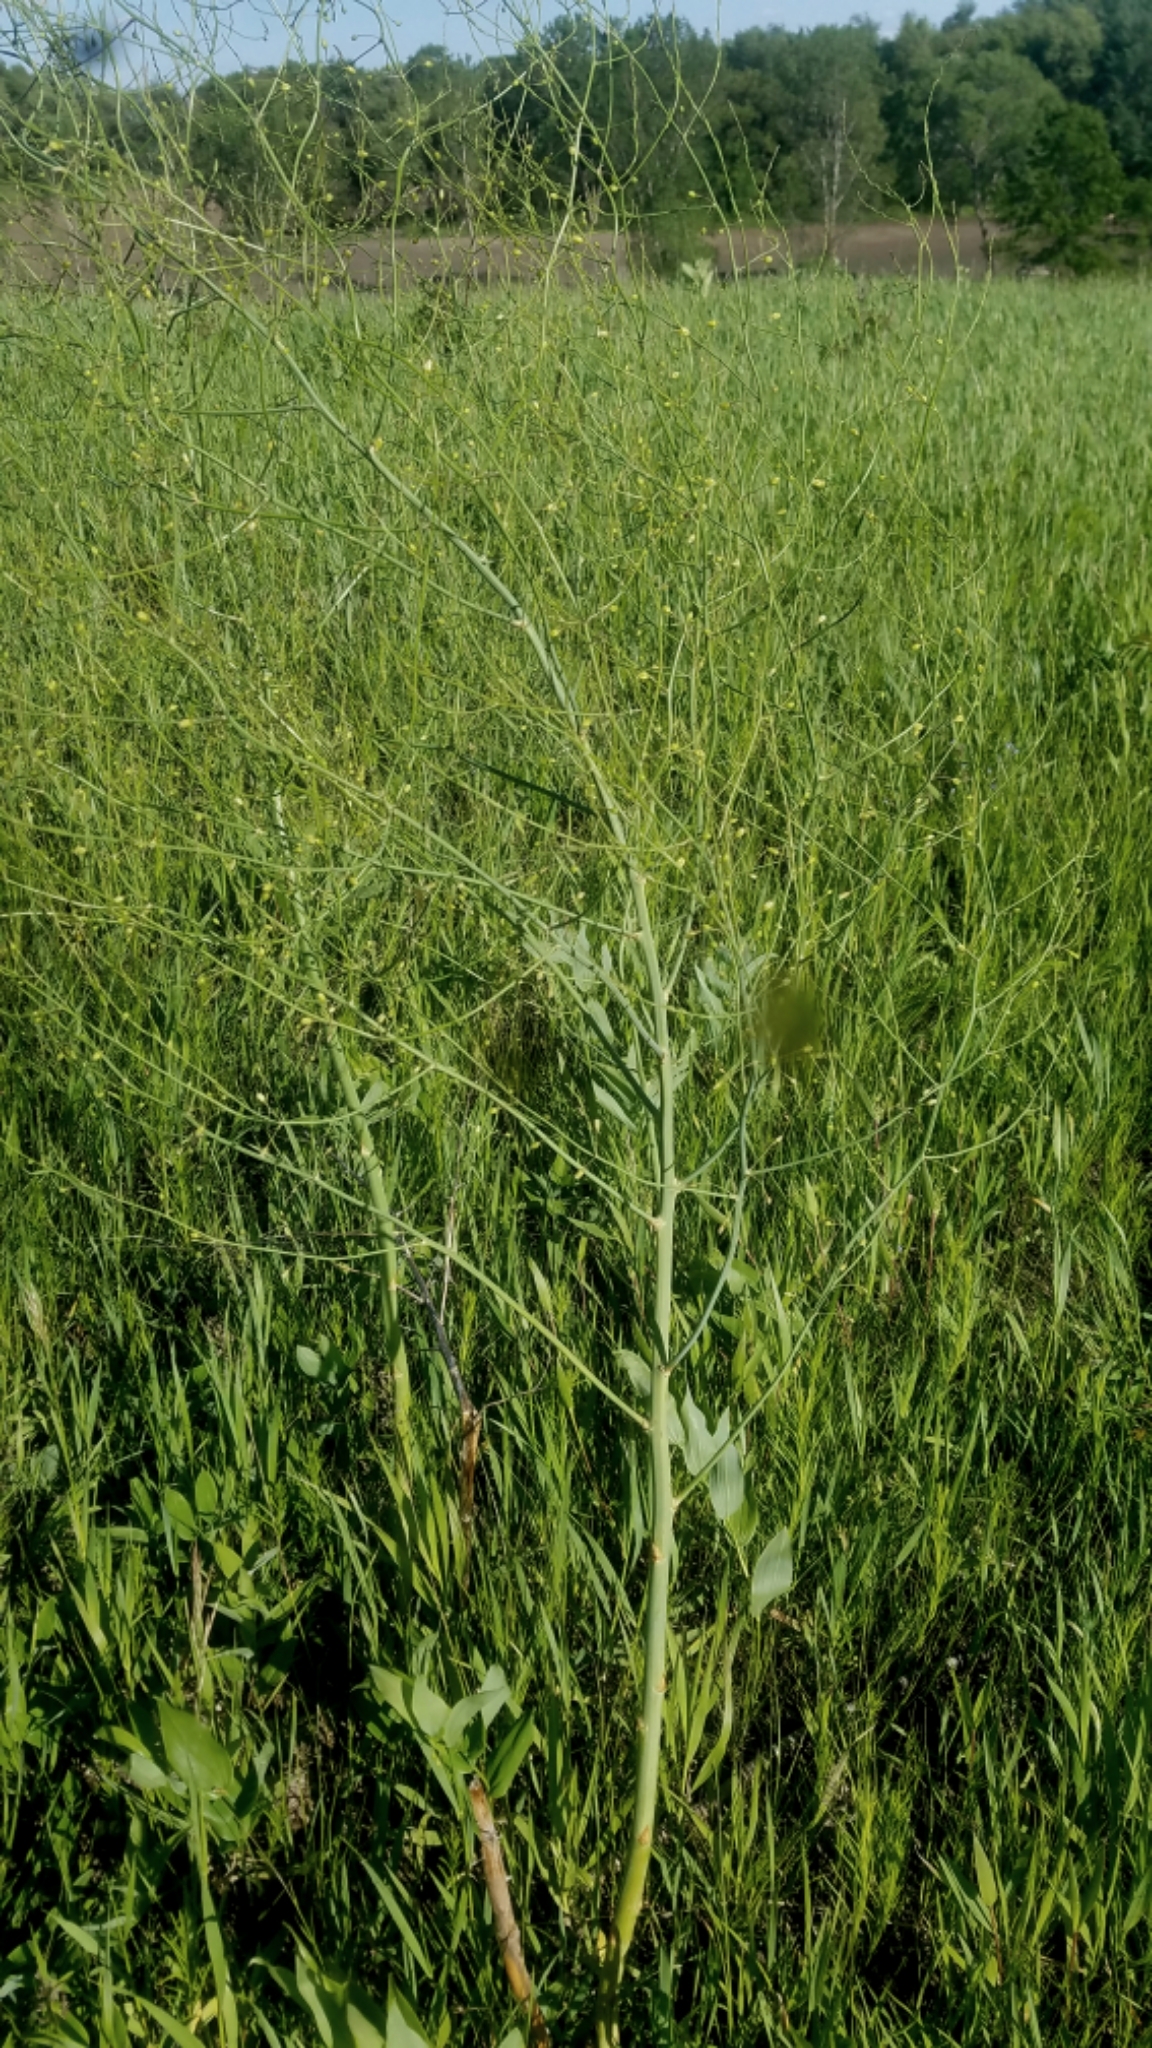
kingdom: Plantae
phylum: Tracheophyta
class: Liliopsida
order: Asparagales
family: Asparagaceae
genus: Asparagus
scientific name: Asparagus officinalis
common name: Garden asparagus
